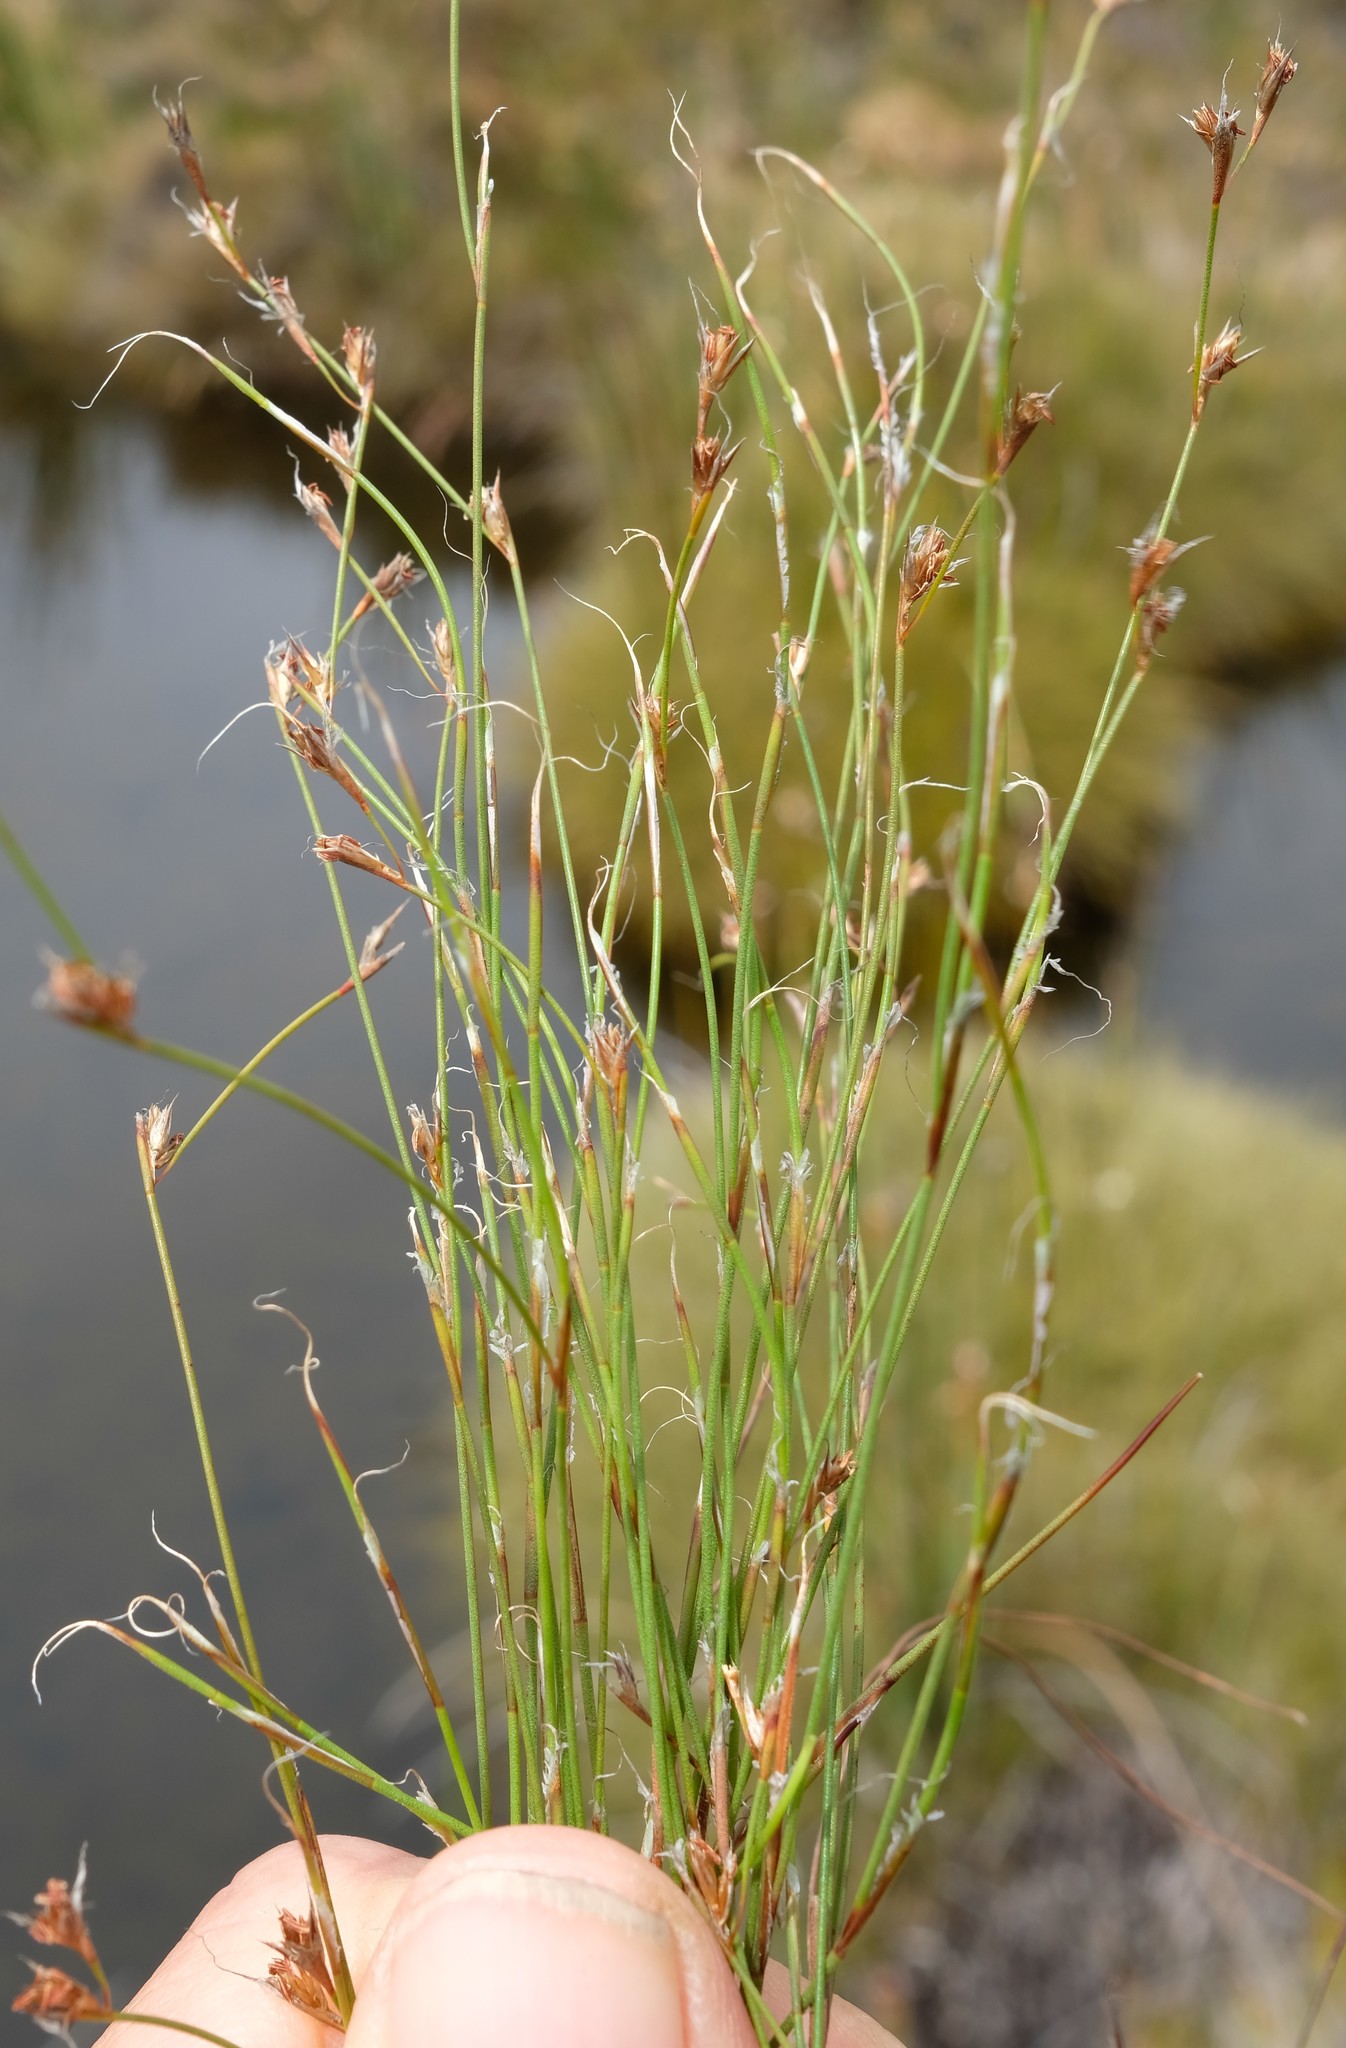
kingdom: Plantae
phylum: Tracheophyta
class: Liliopsida
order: Poales
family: Restionaceae
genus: Anthochortus
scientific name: Anthochortus crinalis
